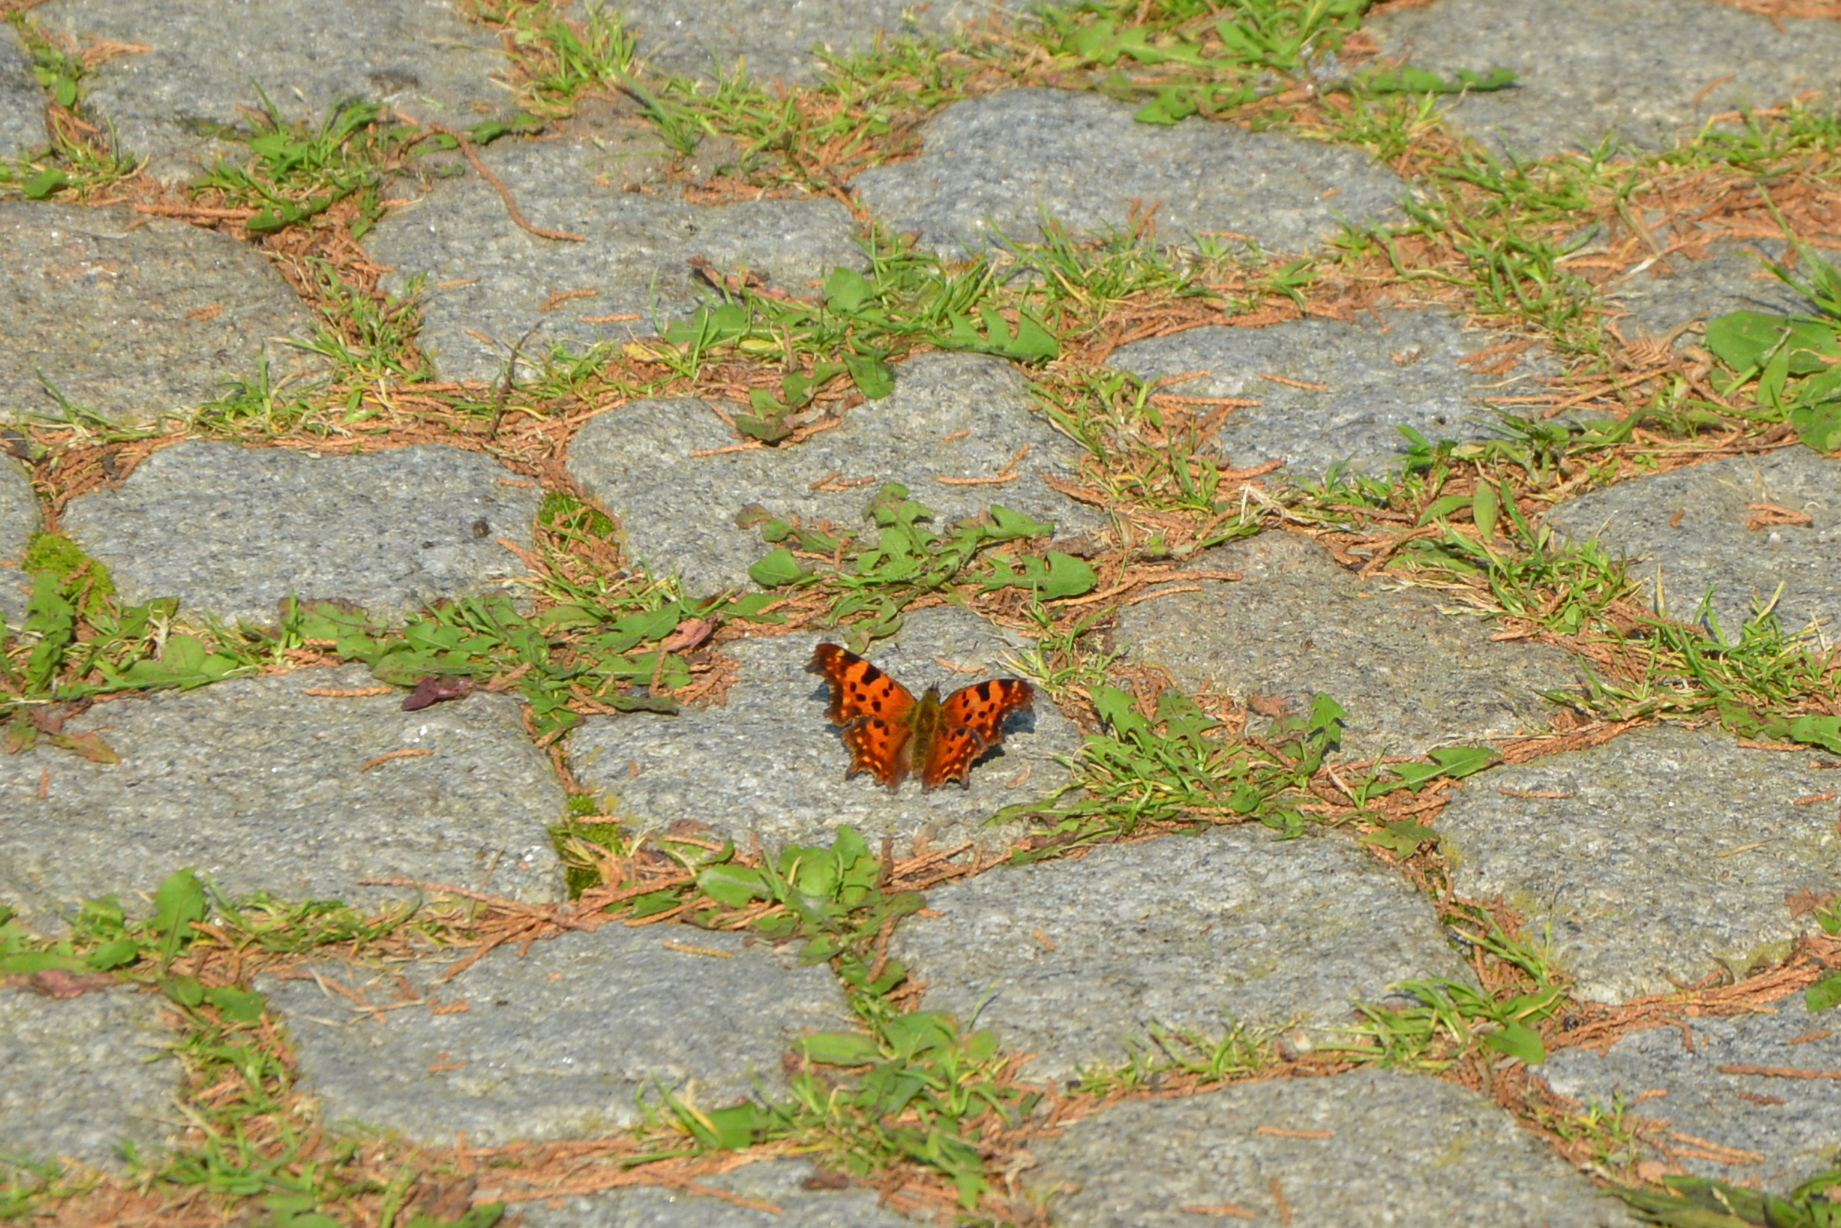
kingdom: Animalia
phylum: Arthropoda
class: Insecta
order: Lepidoptera
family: Nymphalidae
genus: Polygonia
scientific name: Polygonia c-album
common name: Comma
